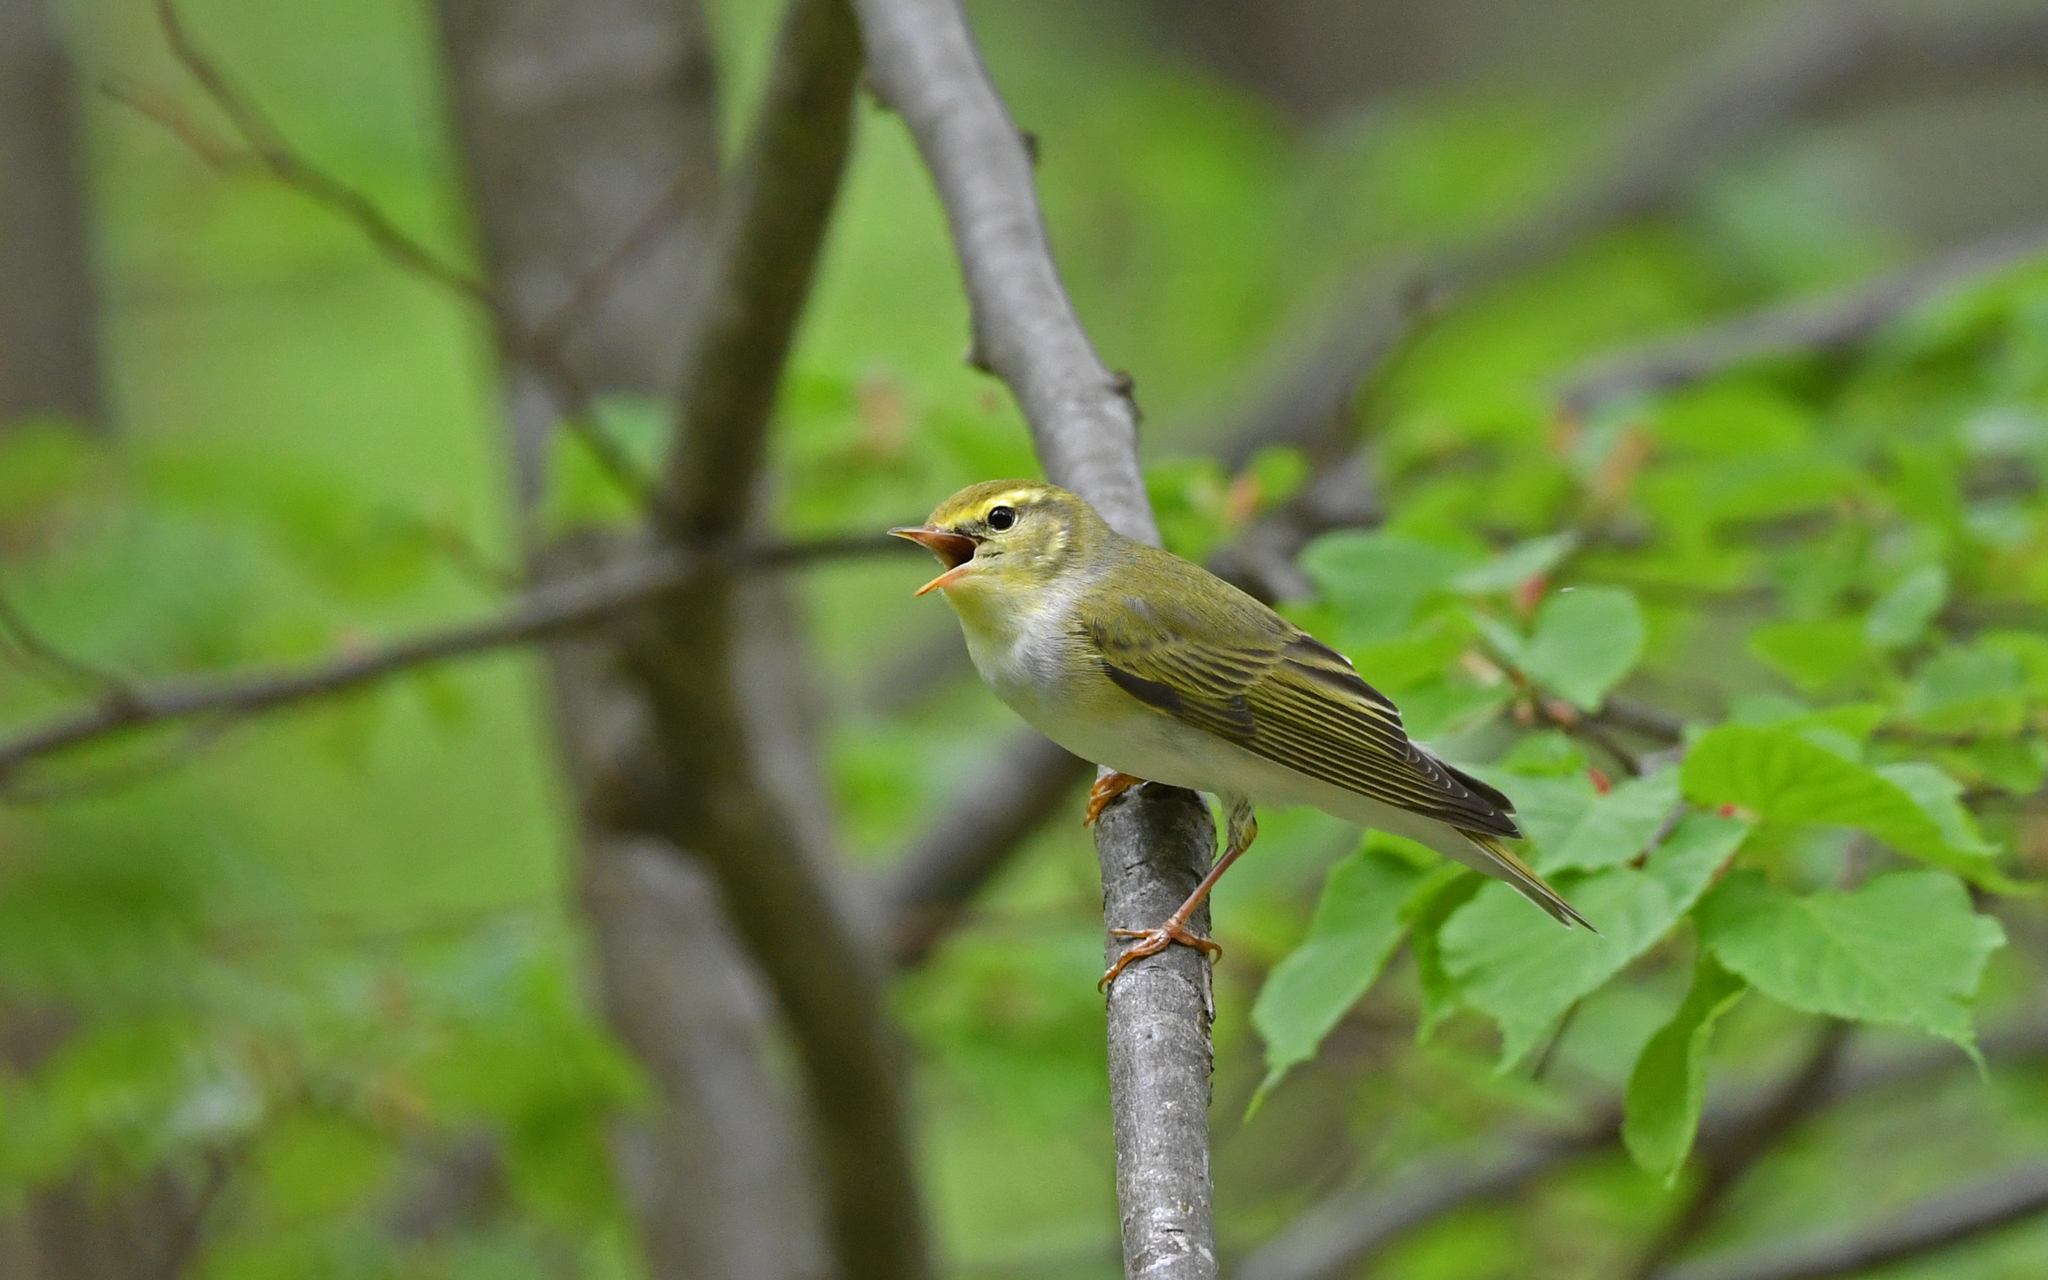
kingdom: Animalia
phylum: Chordata
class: Aves
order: Passeriformes
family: Phylloscopidae
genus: Phylloscopus
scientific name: Phylloscopus sibillatrix
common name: Wood warbler
